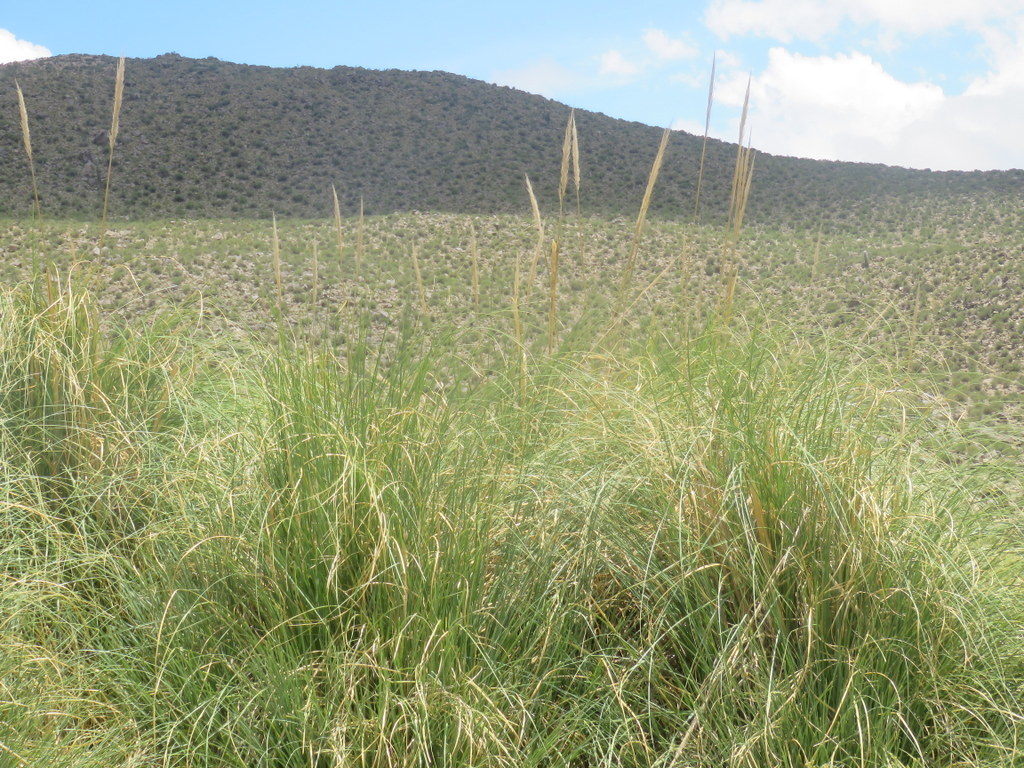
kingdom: Plantae
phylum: Tracheophyta
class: Liliopsida
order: Poales
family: Poaceae
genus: Cortaderia
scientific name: Cortaderia selloana
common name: Uruguayan pampas grass
